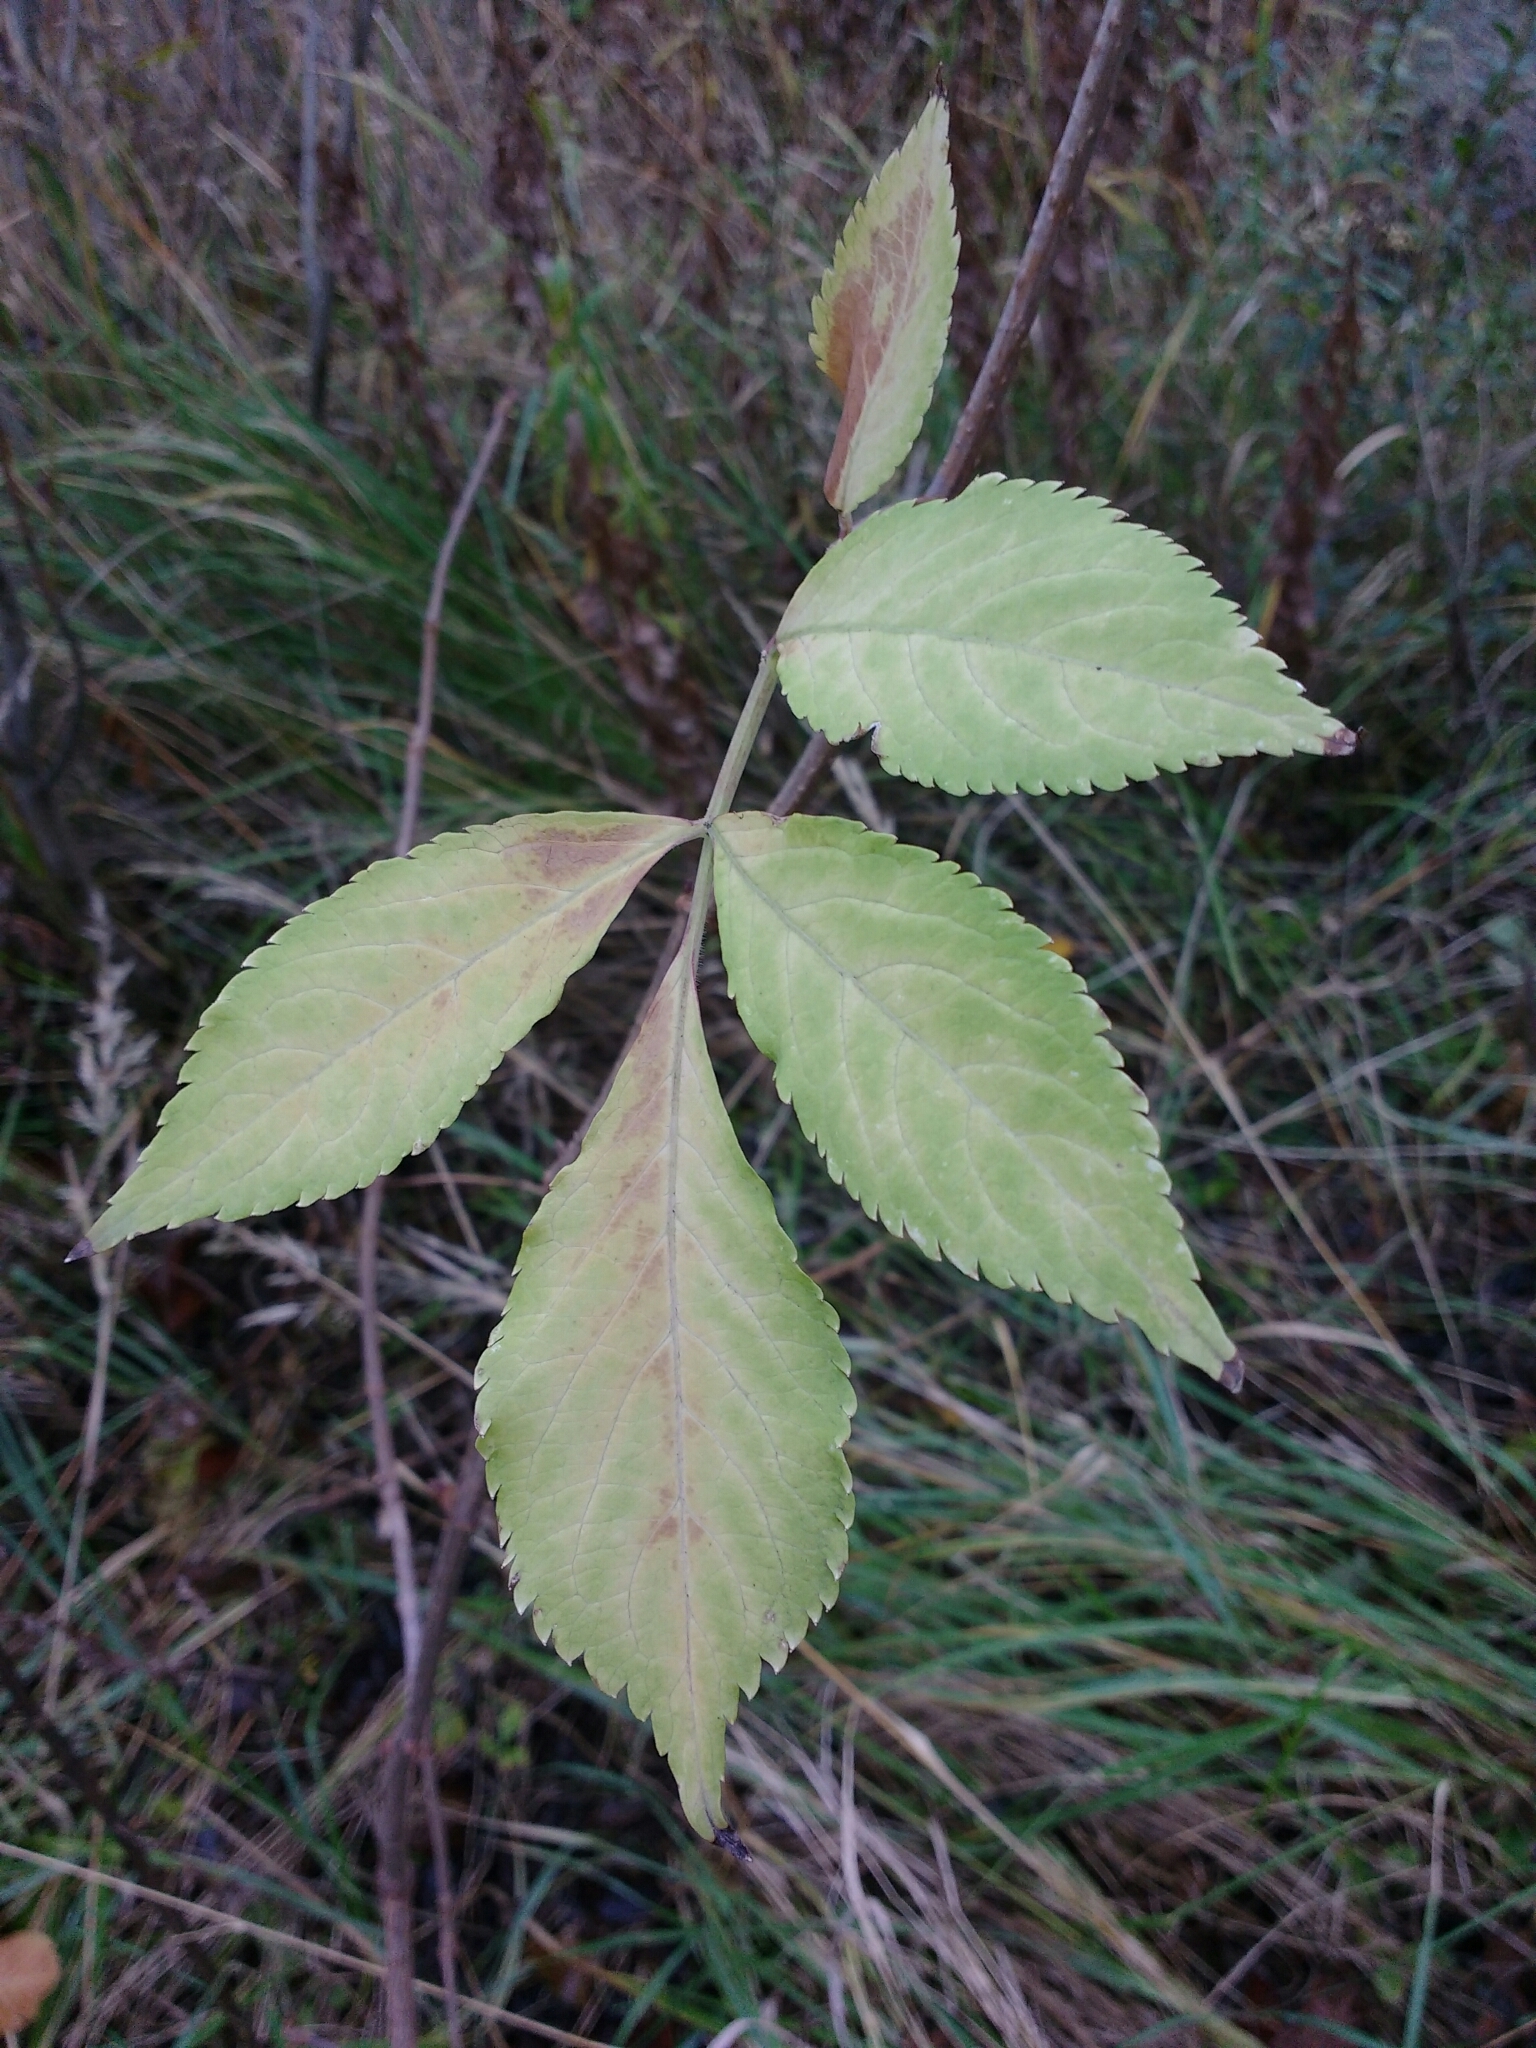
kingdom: Plantae
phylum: Tracheophyta
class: Magnoliopsida
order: Dipsacales
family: Viburnaceae
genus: Sambucus
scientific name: Sambucus nigra
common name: Elder
